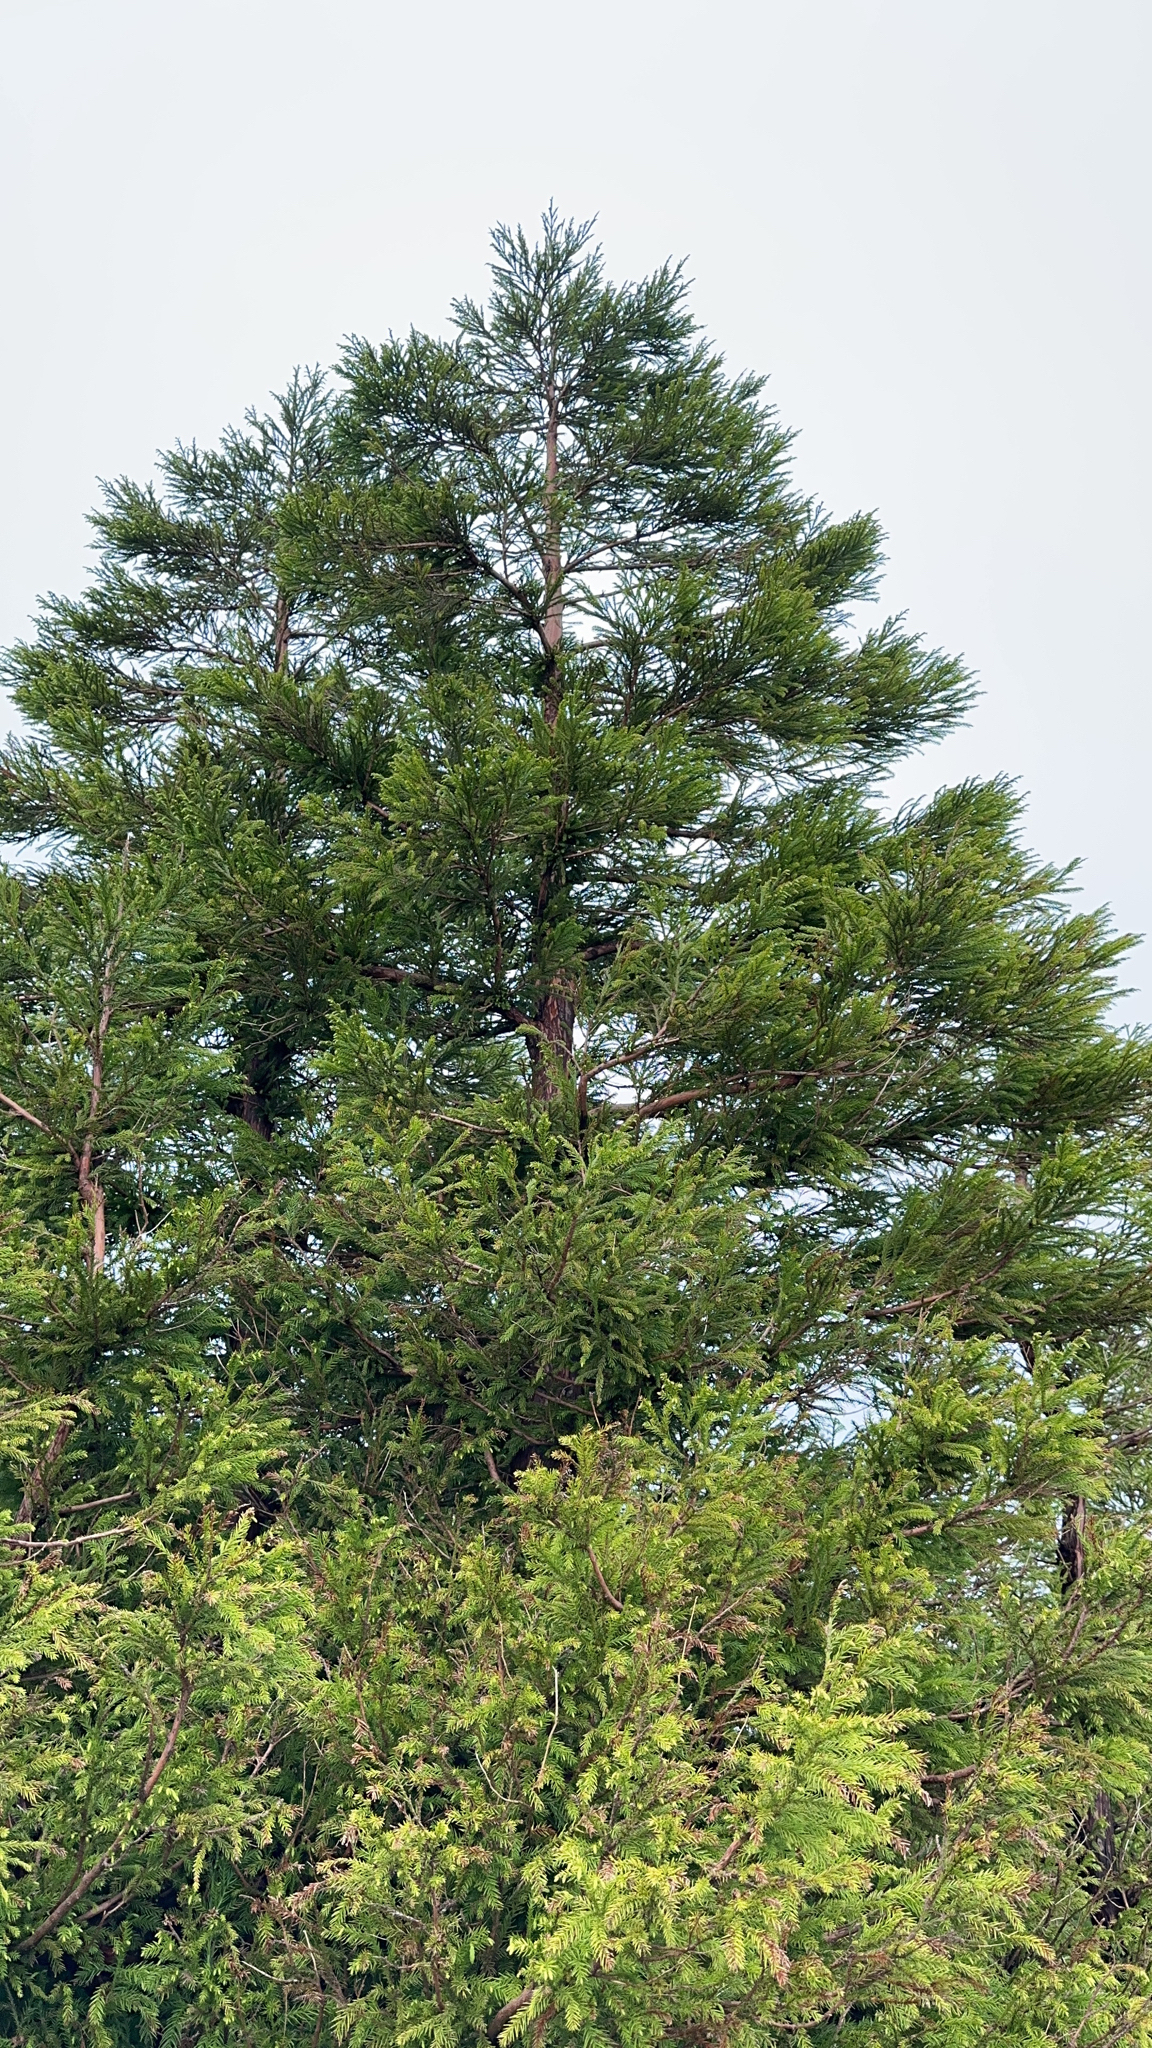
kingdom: Plantae
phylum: Tracheophyta
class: Pinopsida
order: Pinales
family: Cupressaceae
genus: Cryptomeria
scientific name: Cryptomeria japonica
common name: Japanese cedar
